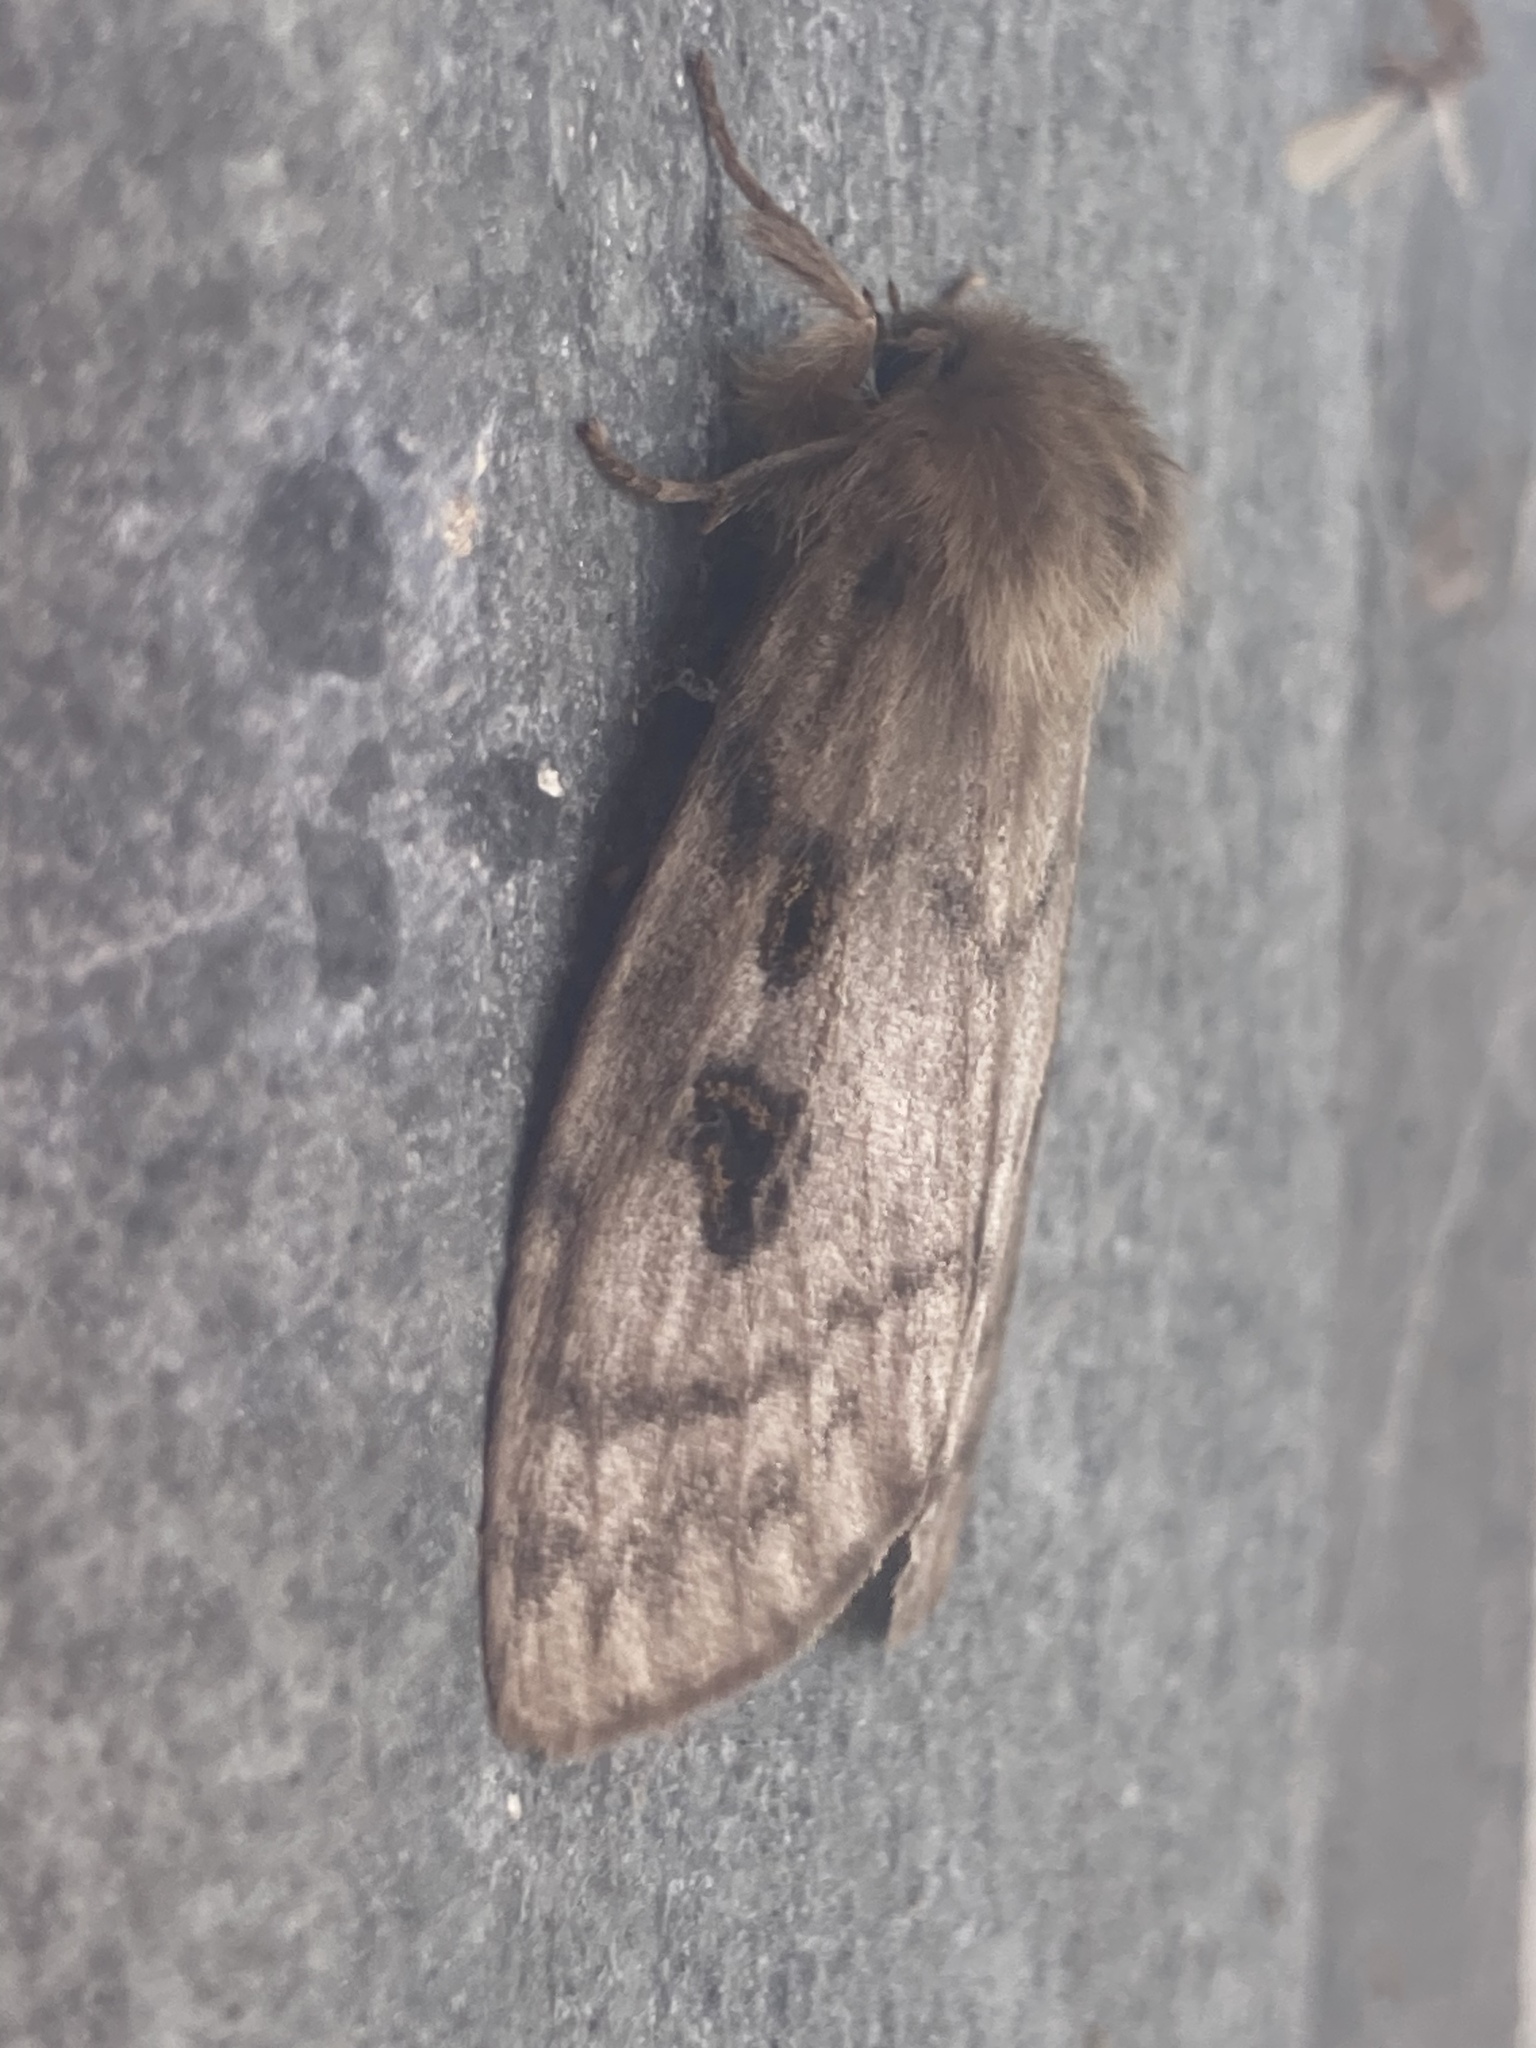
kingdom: Animalia
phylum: Arthropoda
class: Insecta
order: Lepidoptera
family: Erebidae
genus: Leptocneria
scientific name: Leptocneria reducta
